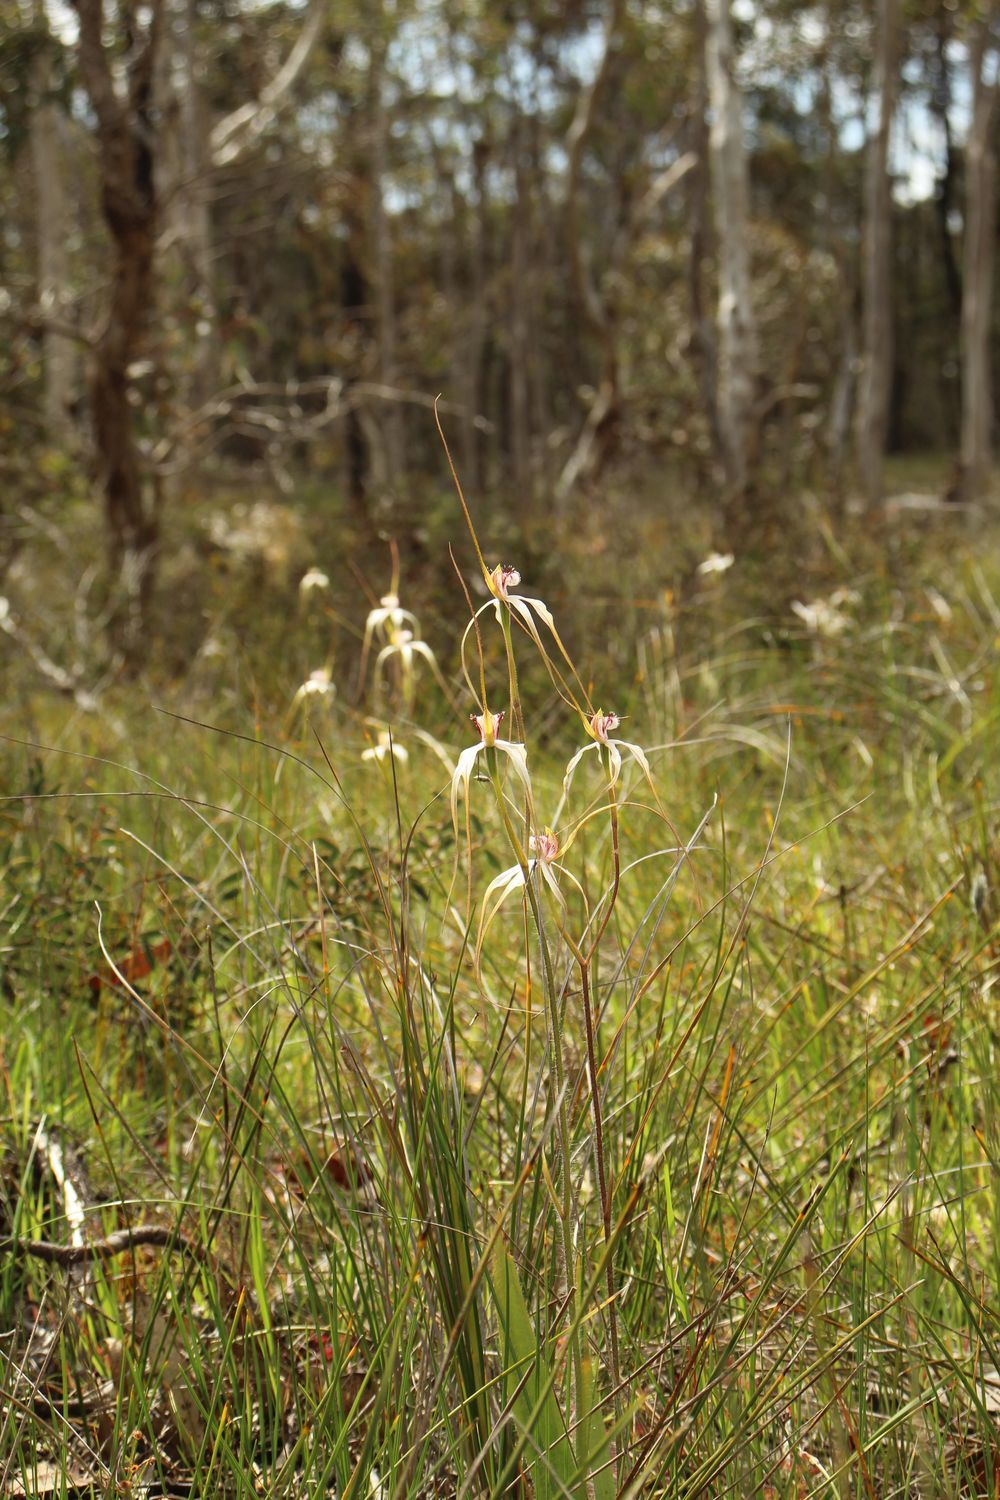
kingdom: Plantae
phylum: Tracheophyta
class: Liliopsida
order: Asparagales
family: Orchidaceae
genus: Caladenia
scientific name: Caladenia longicauda
